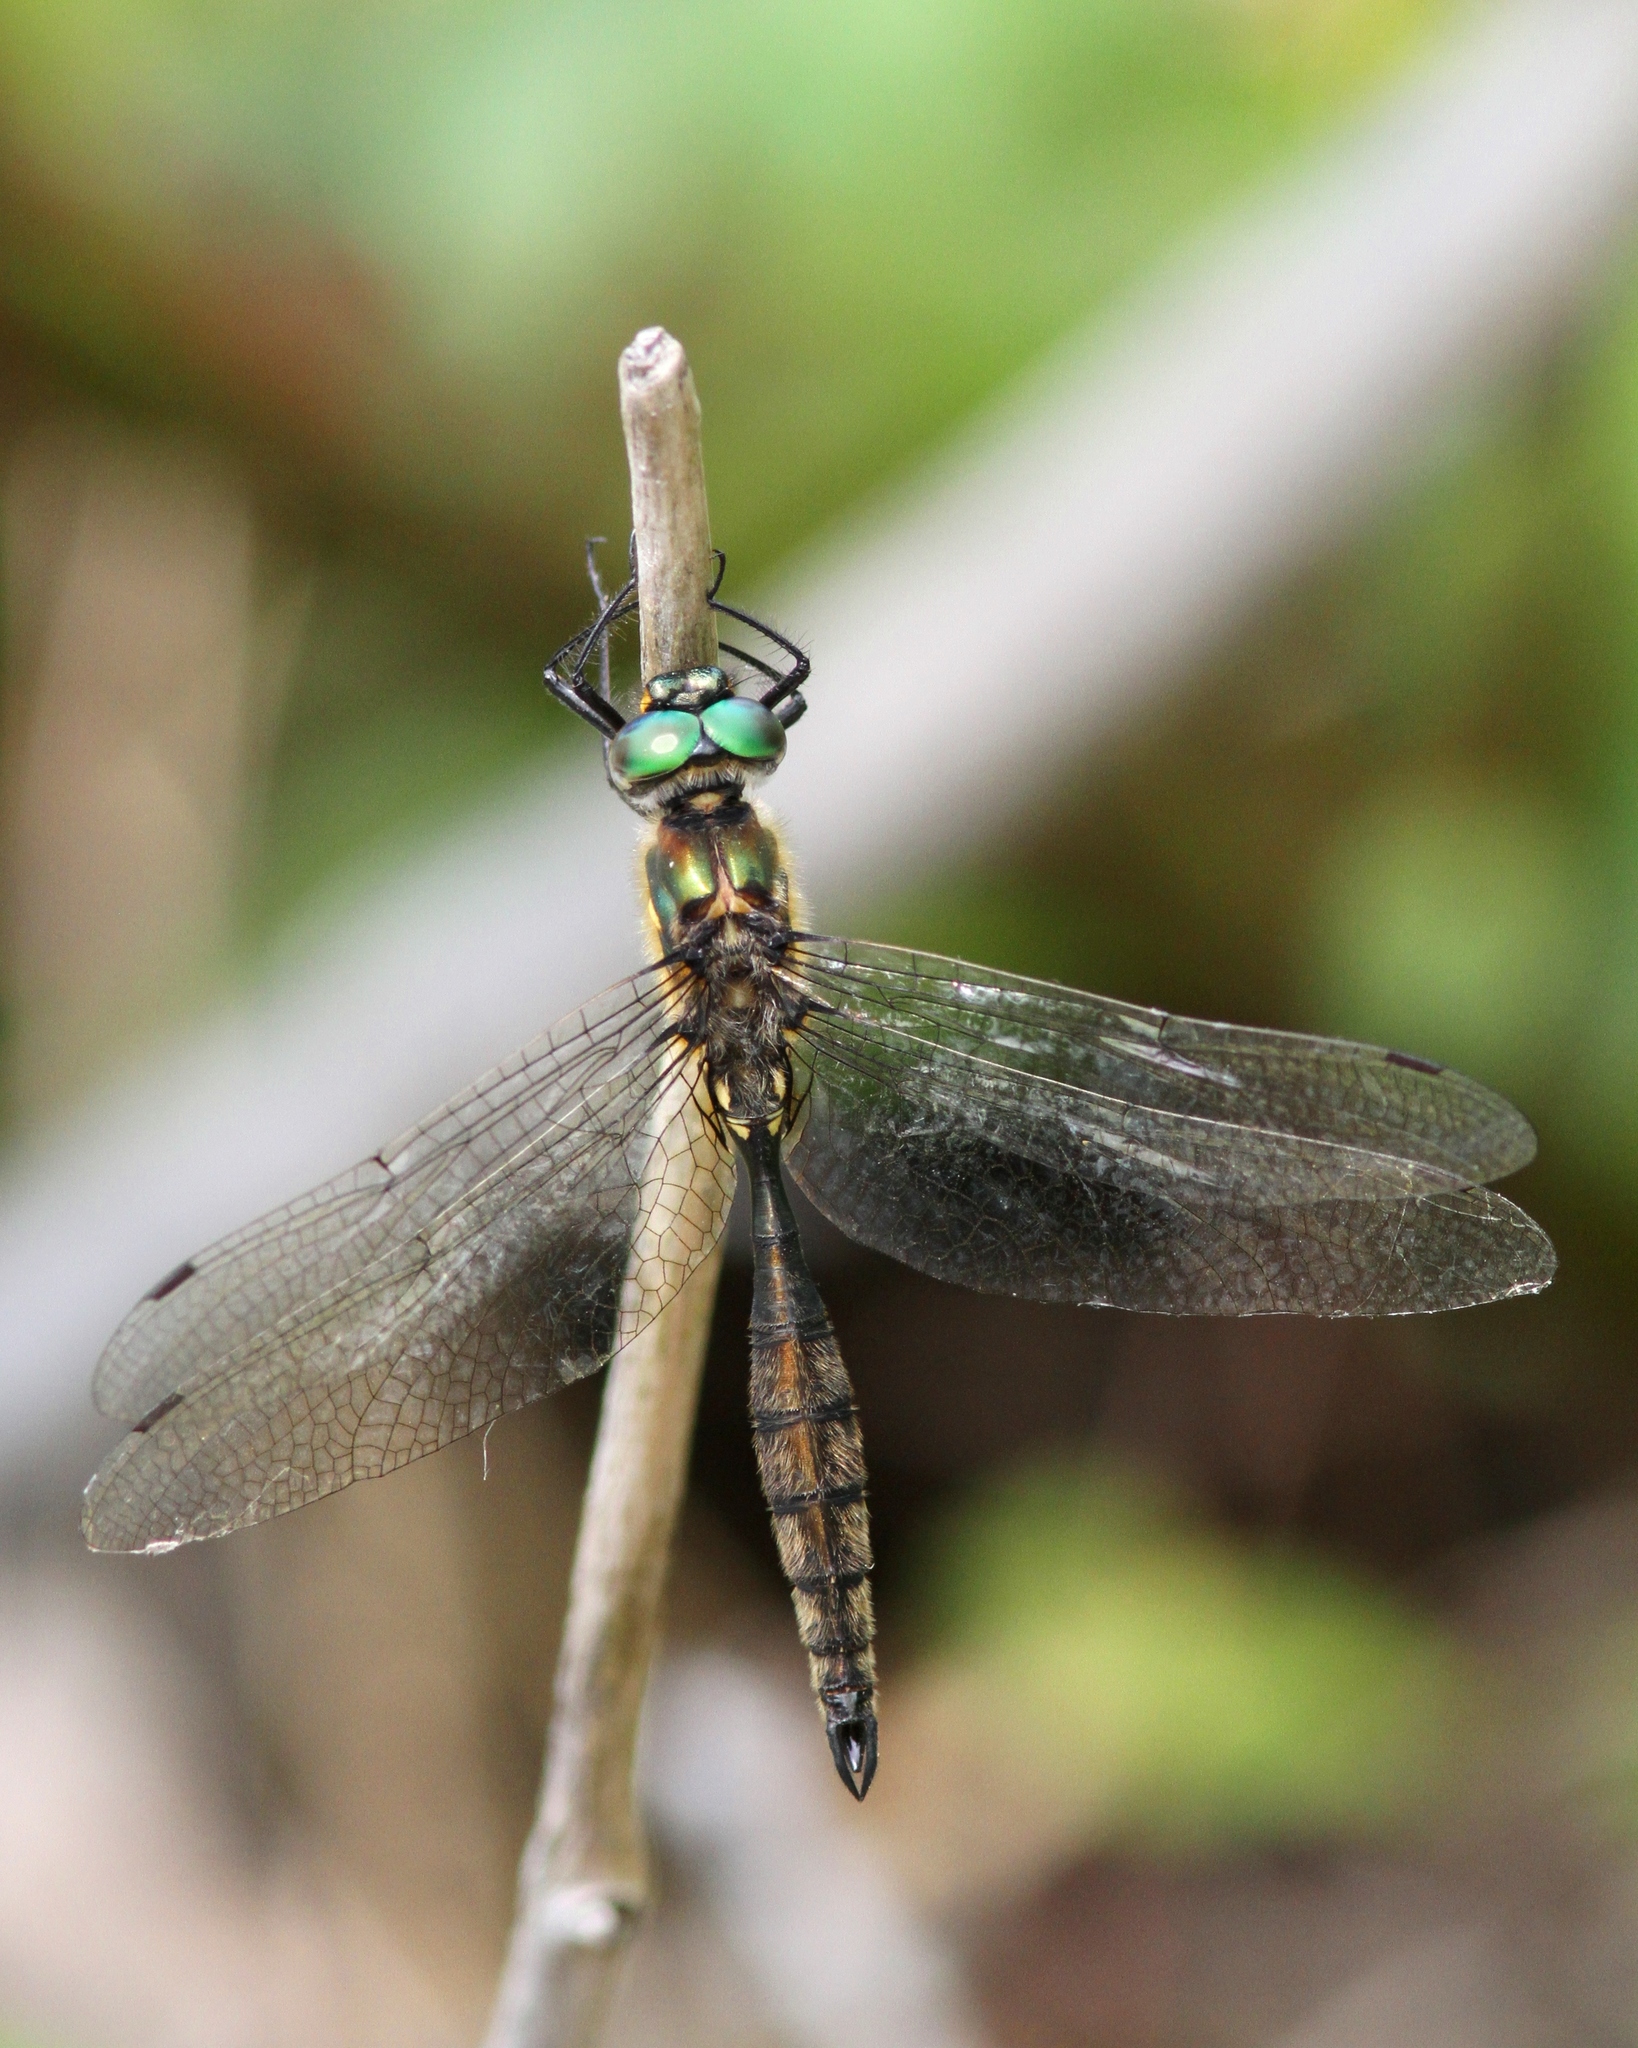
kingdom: Animalia
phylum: Arthropoda
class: Insecta
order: Odonata
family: Corduliidae
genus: Somatochlora
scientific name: Somatochlora minor
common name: Ocellated emerald
